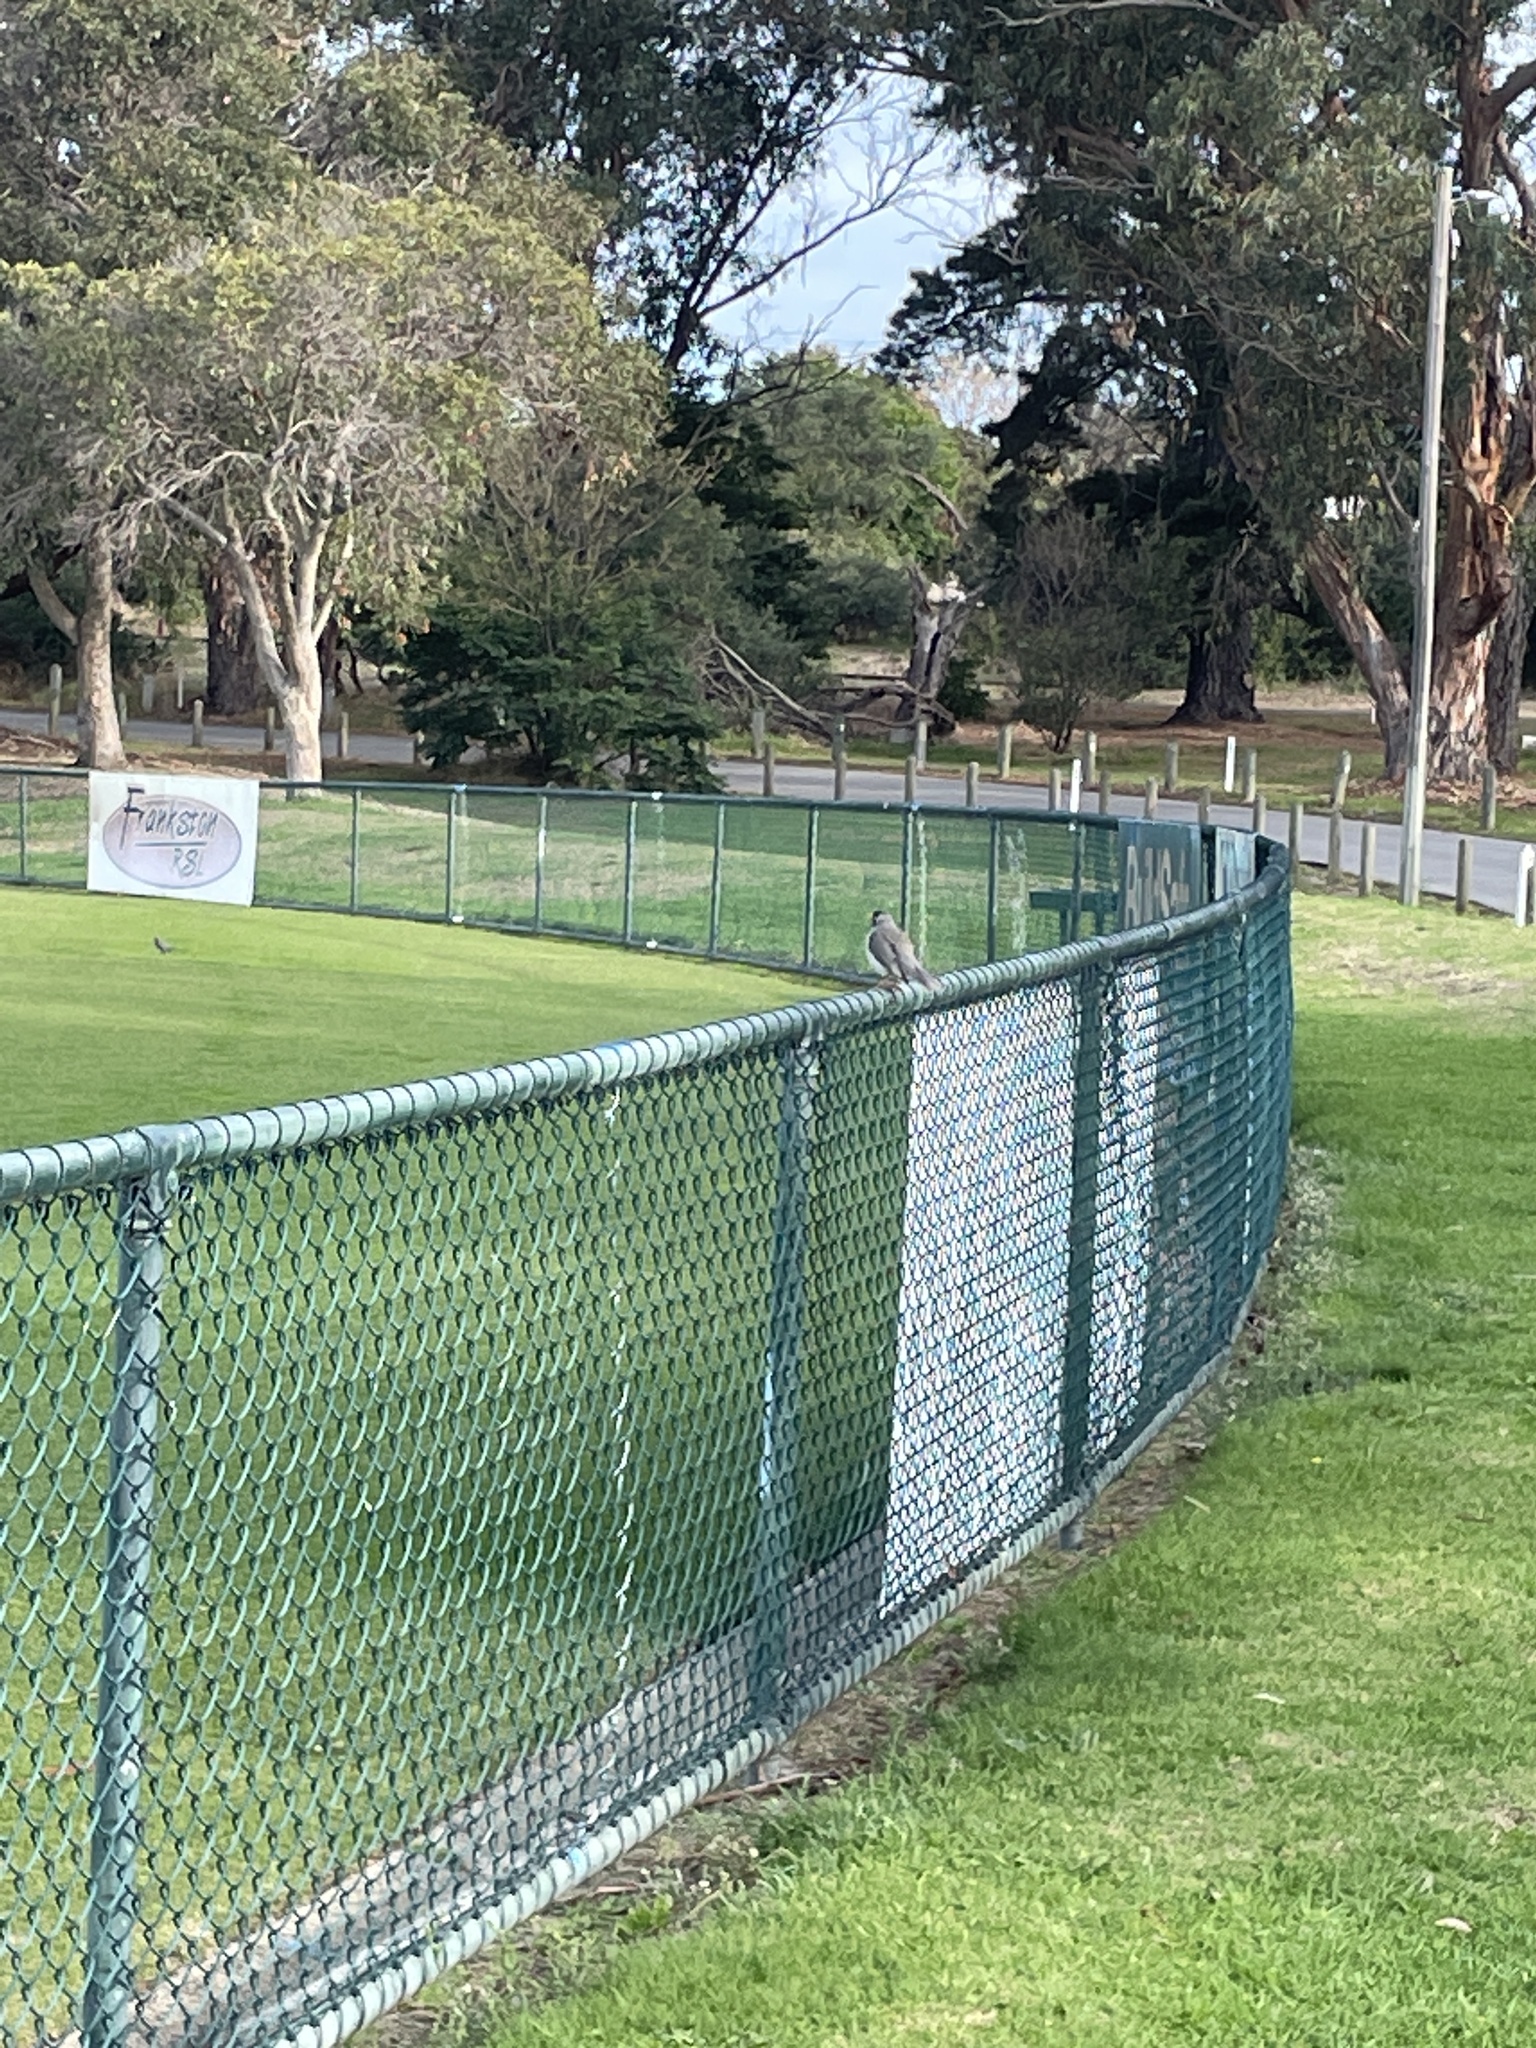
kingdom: Animalia
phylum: Chordata
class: Aves
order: Passeriformes
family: Meliphagidae
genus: Manorina
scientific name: Manorina melanocephala
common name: Noisy miner
